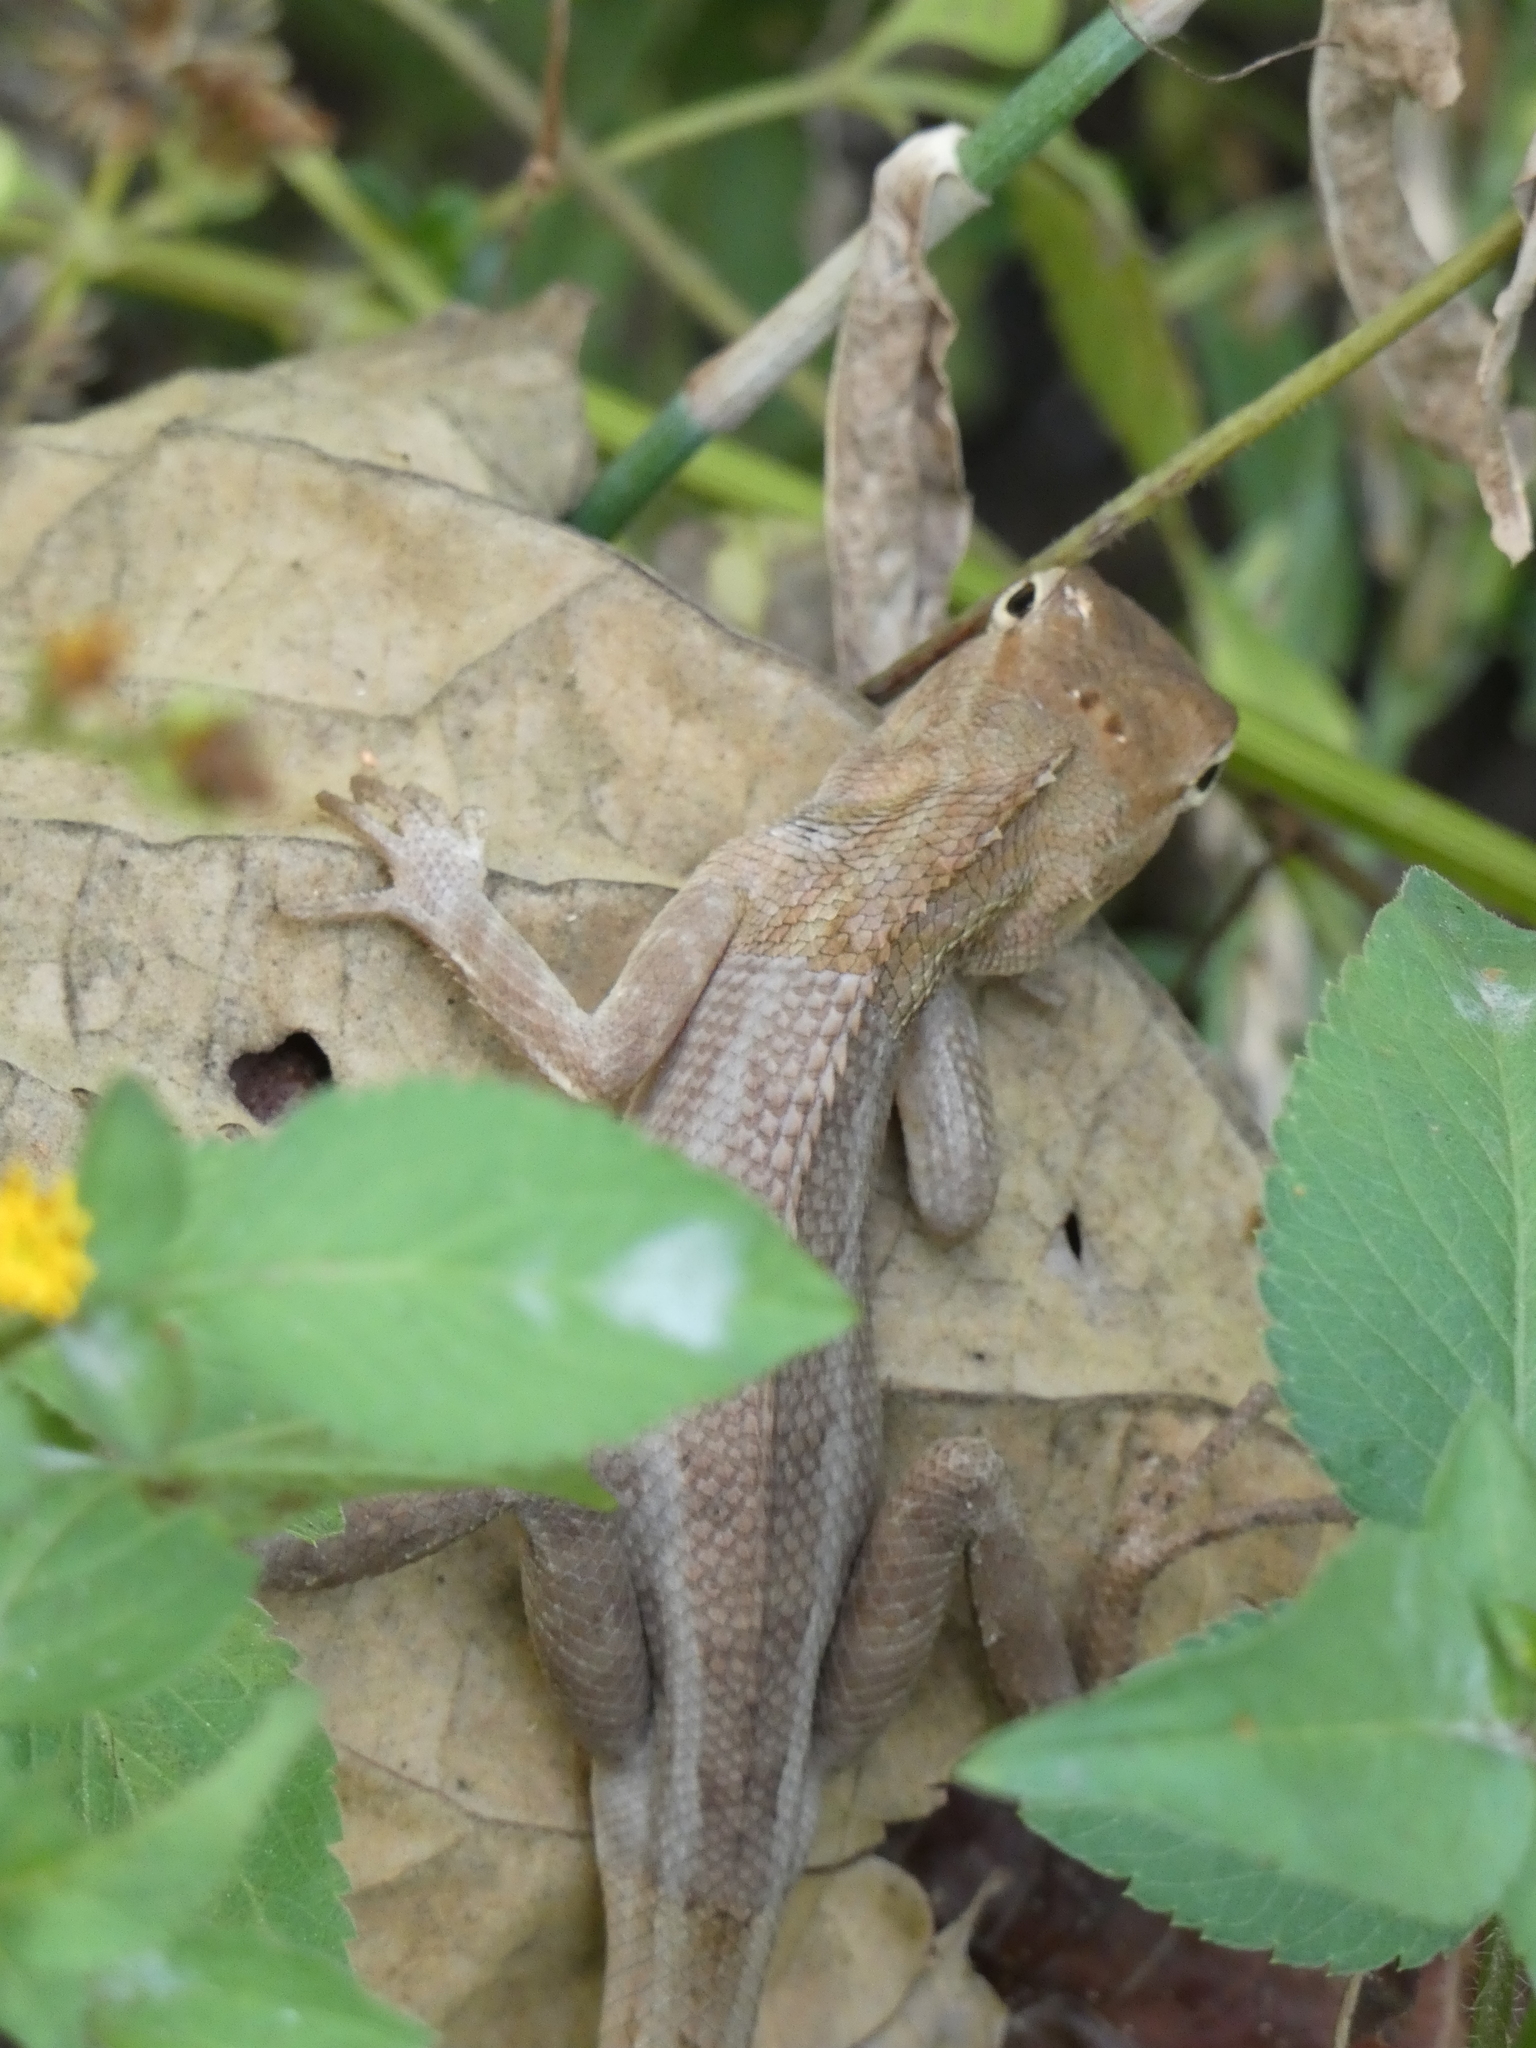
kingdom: Animalia
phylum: Chordata
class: Squamata
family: Agamidae
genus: Calotes
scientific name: Calotes versicolor
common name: Oriental garden lizard
